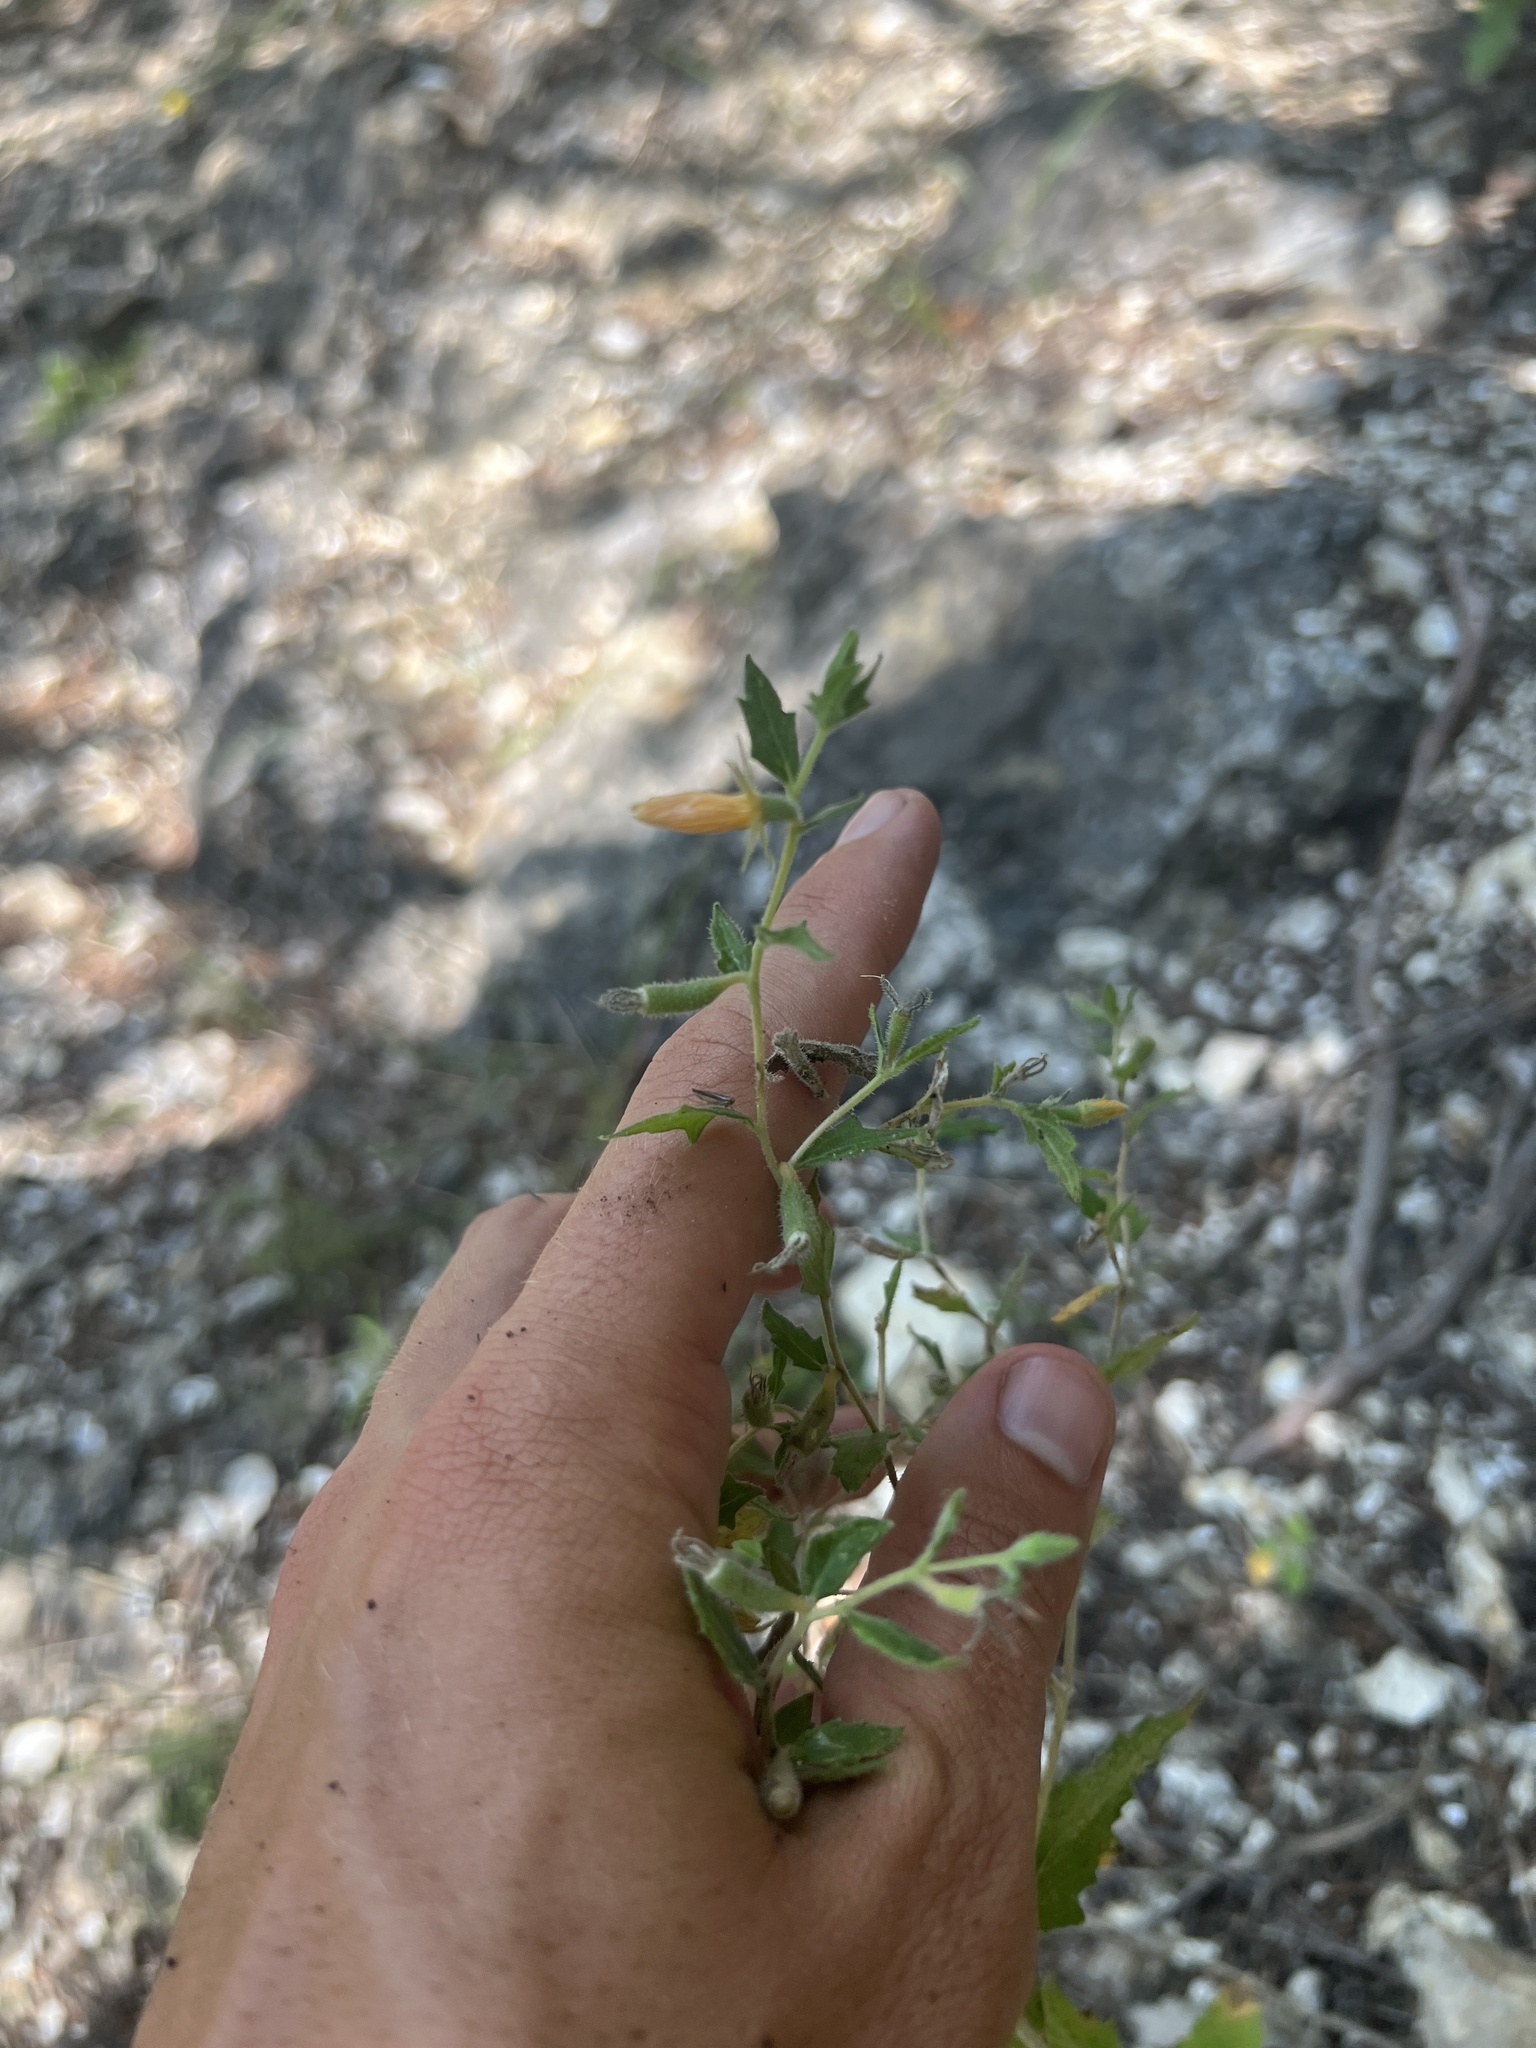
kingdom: Plantae
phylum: Tracheophyta
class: Magnoliopsida
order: Cornales
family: Loasaceae
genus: Mentzelia
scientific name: Mentzelia oligosperma
